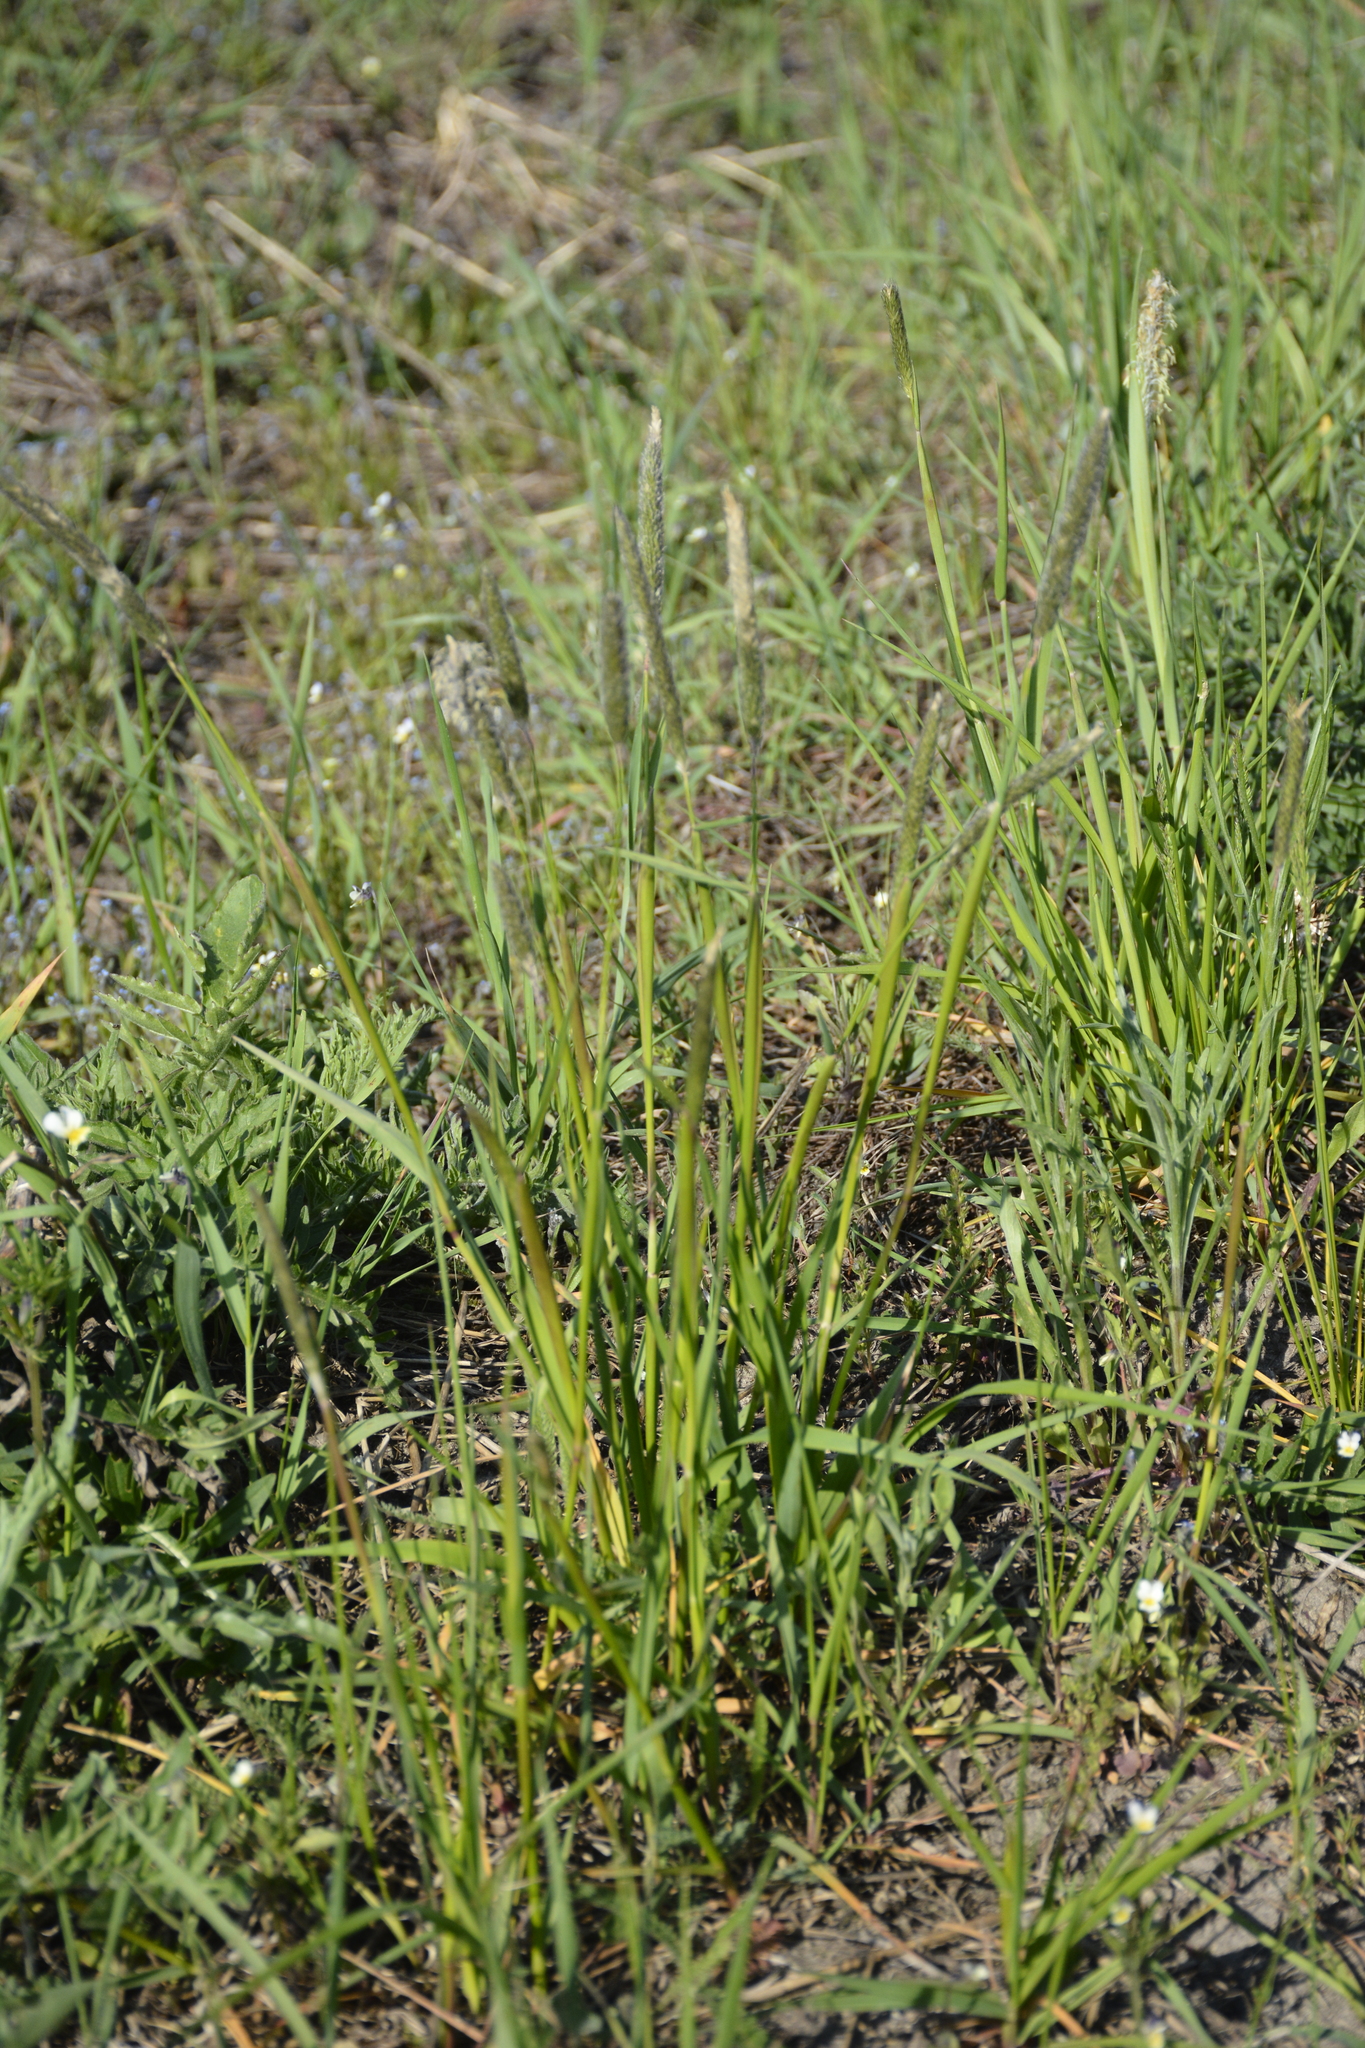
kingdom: Plantae
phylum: Tracheophyta
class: Liliopsida
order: Poales
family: Poaceae
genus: Alopecurus
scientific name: Alopecurus pratensis
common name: Meadow foxtail
